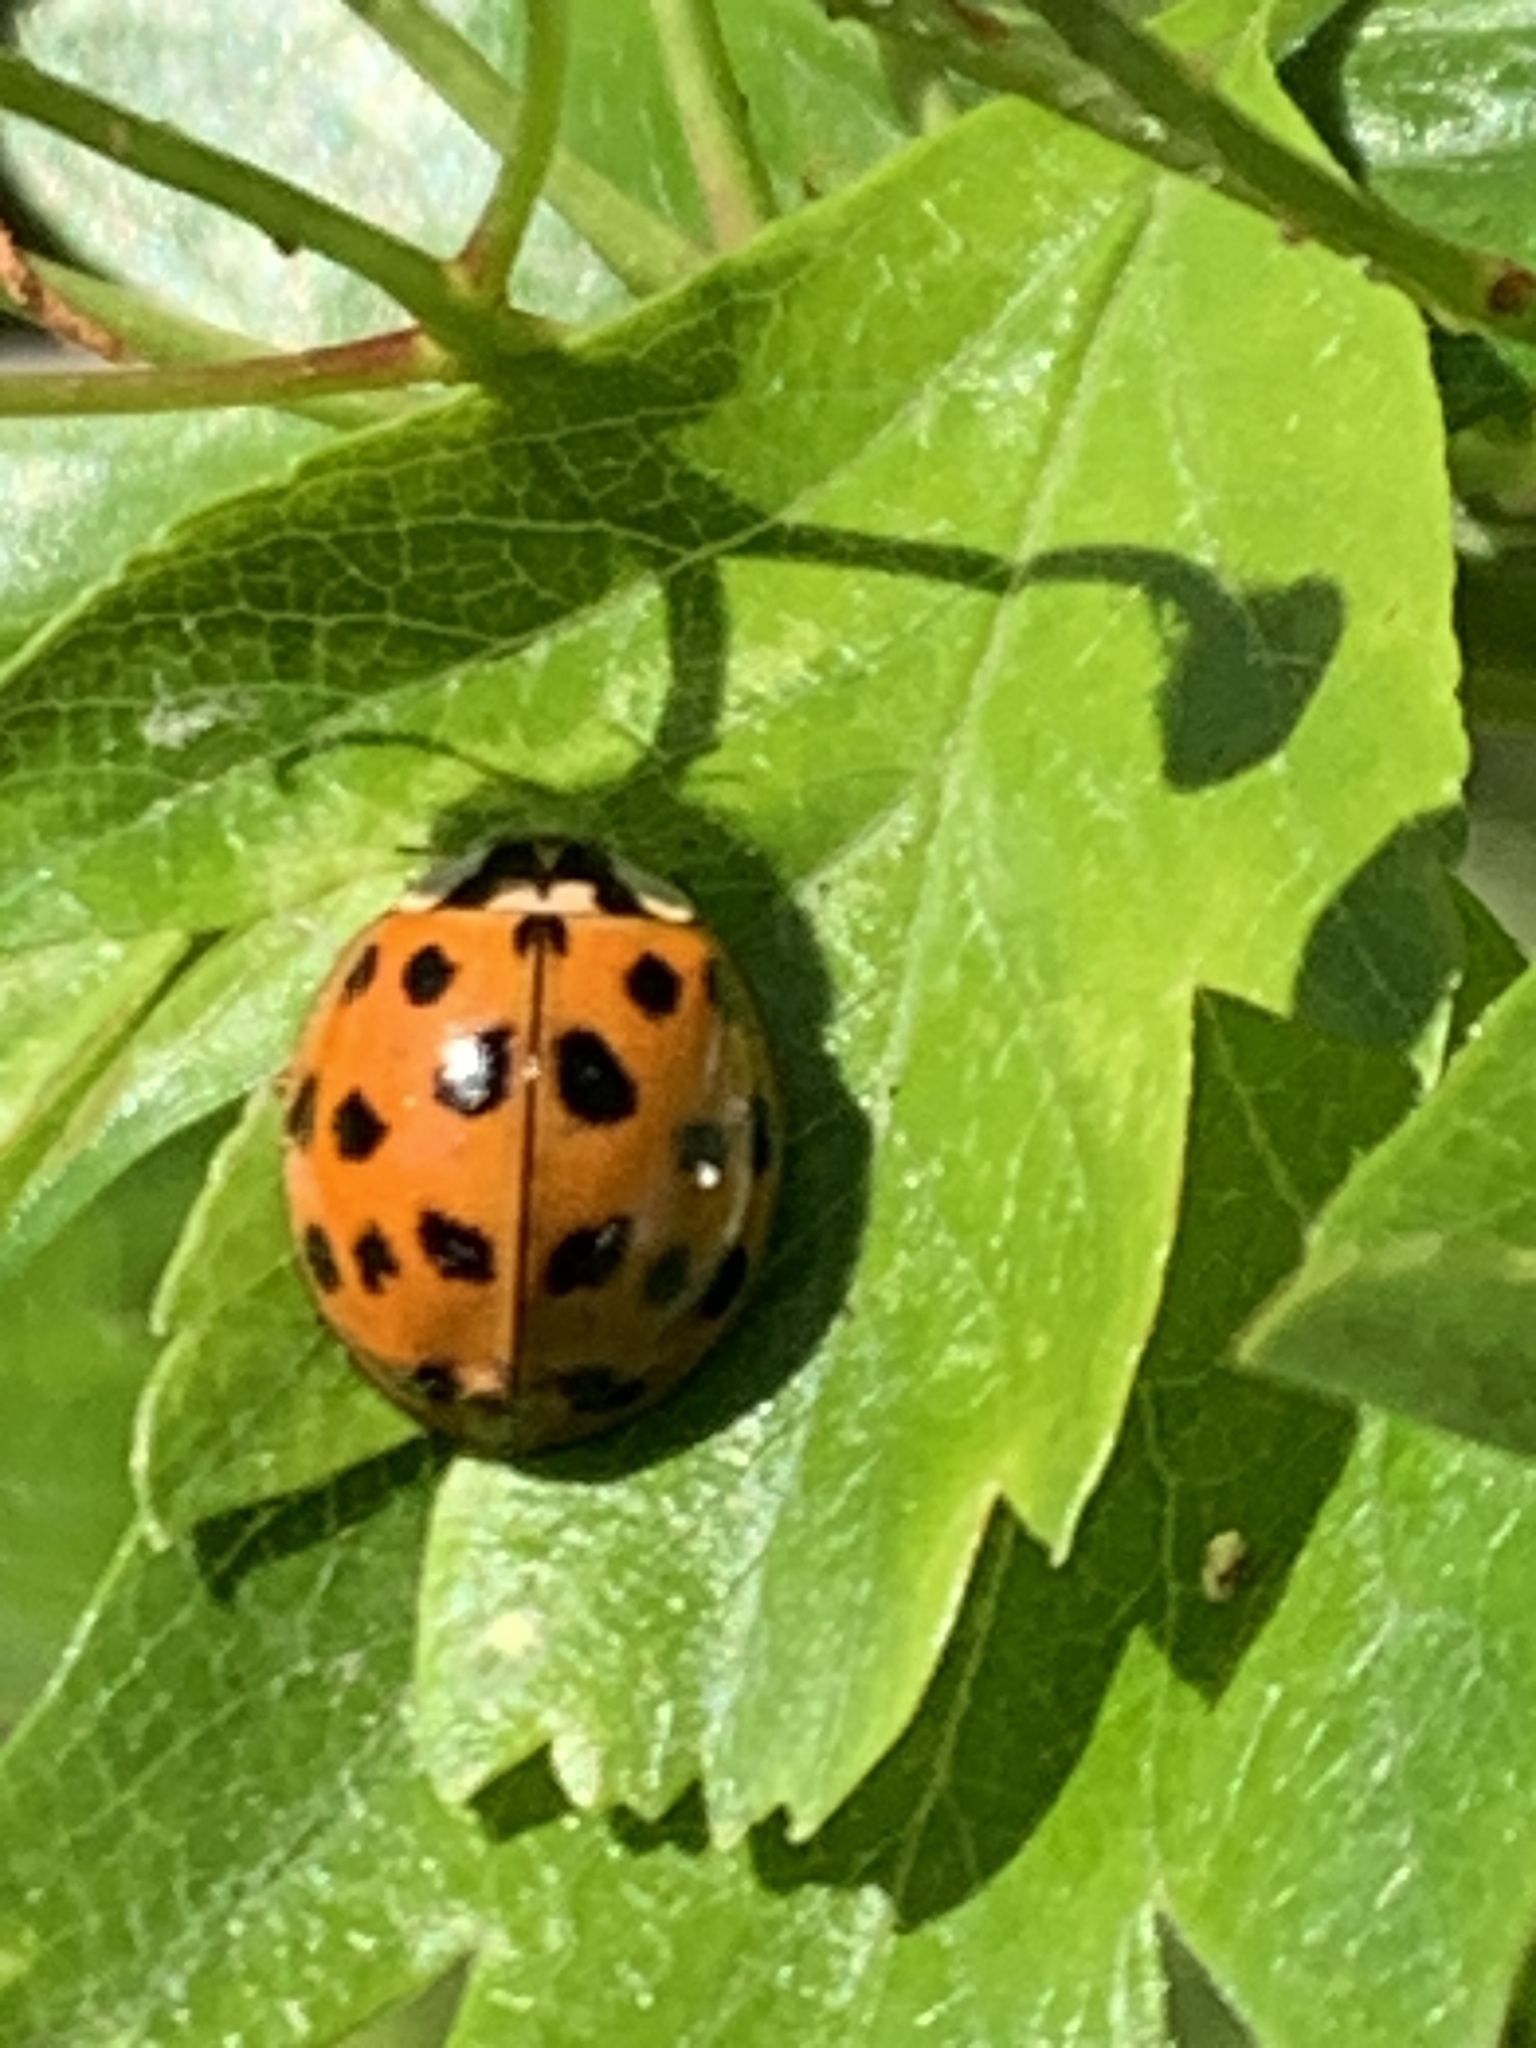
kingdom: Animalia
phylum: Arthropoda
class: Insecta
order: Coleoptera
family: Coccinellidae
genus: Harmonia
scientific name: Harmonia axyridis
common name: Harlequin ladybird
